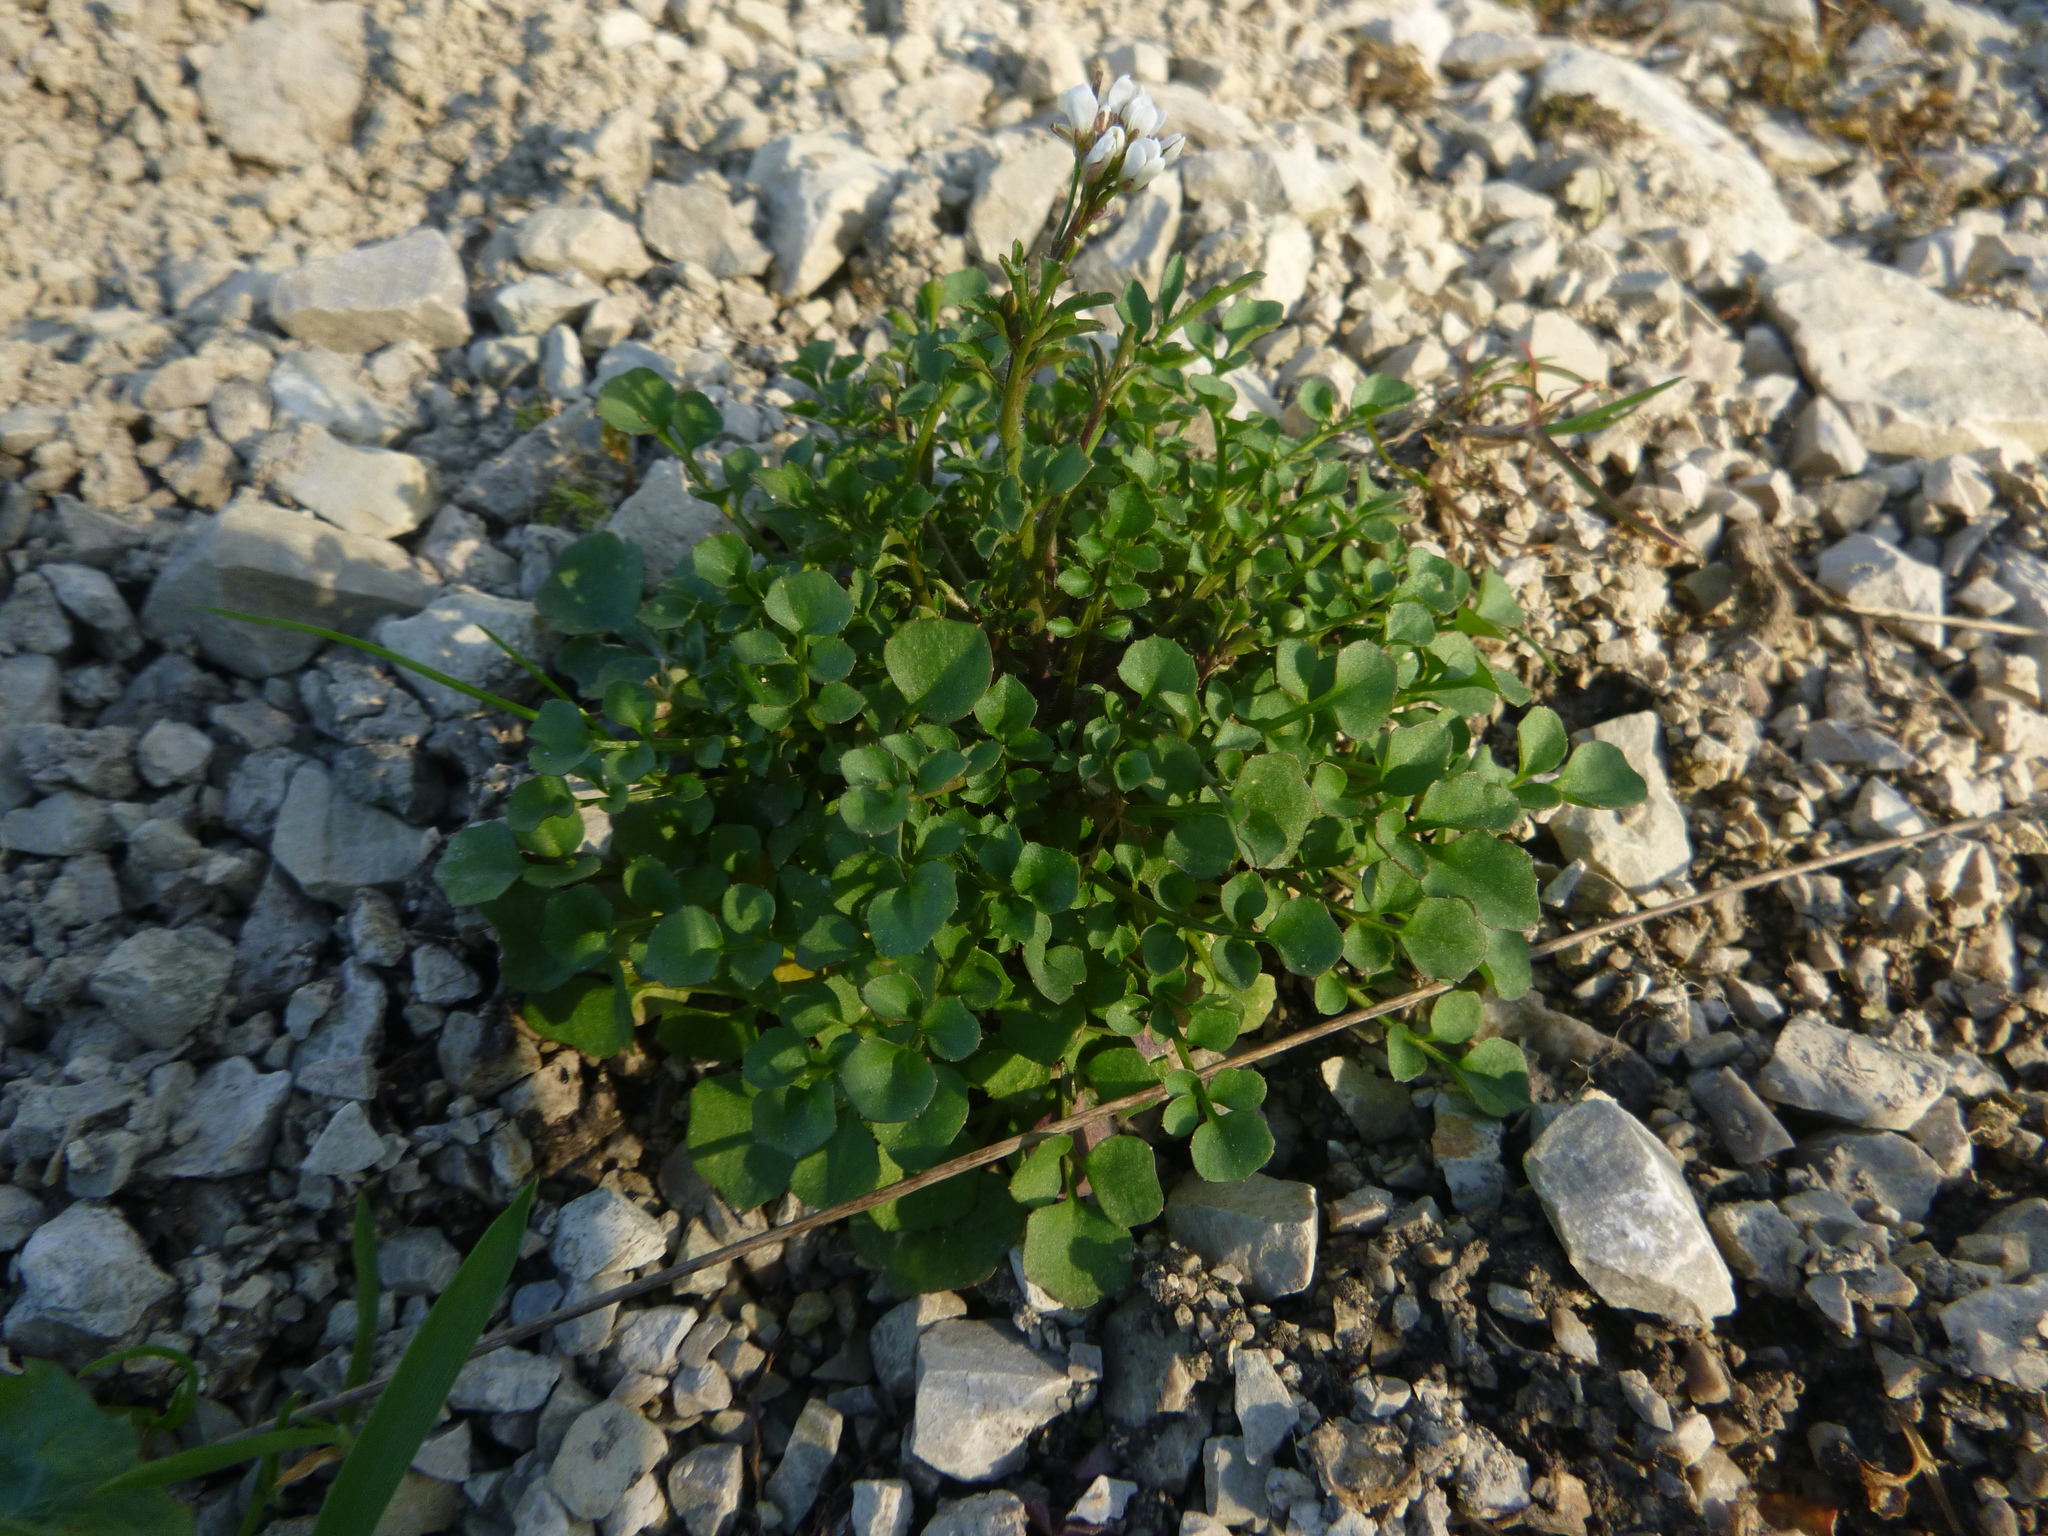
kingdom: Plantae
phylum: Tracheophyta
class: Magnoliopsida
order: Brassicales
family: Brassicaceae
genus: Cardamine
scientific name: Cardamine hirsuta
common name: Hairy bittercress
